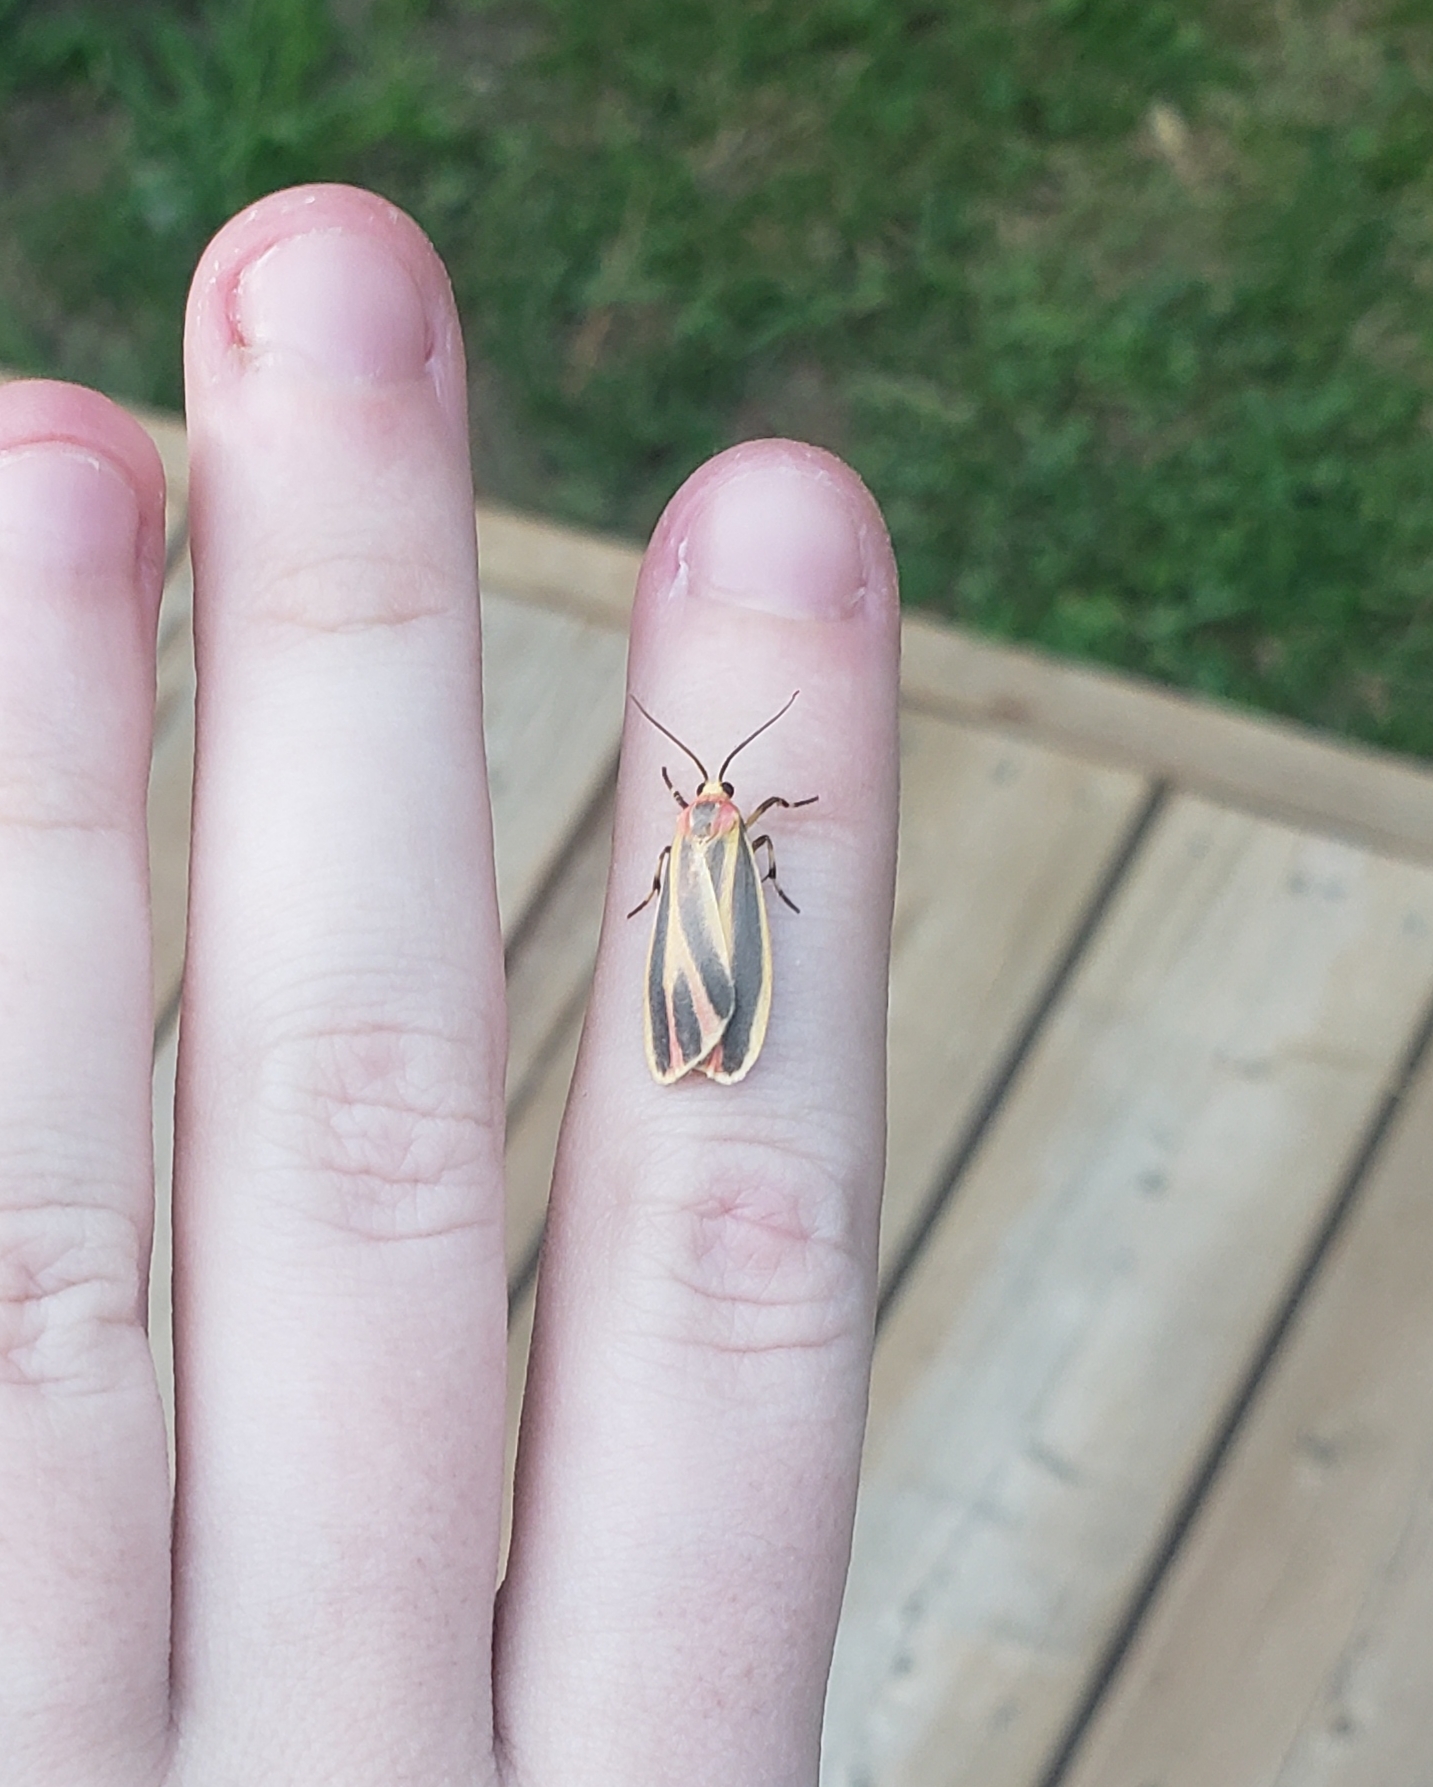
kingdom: Animalia
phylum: Arthropoda
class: Insecta
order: Lepidoptera
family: Erebidae
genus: Hypoprepia
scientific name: Hypoprepia fucosa
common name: Painted lichen moth
